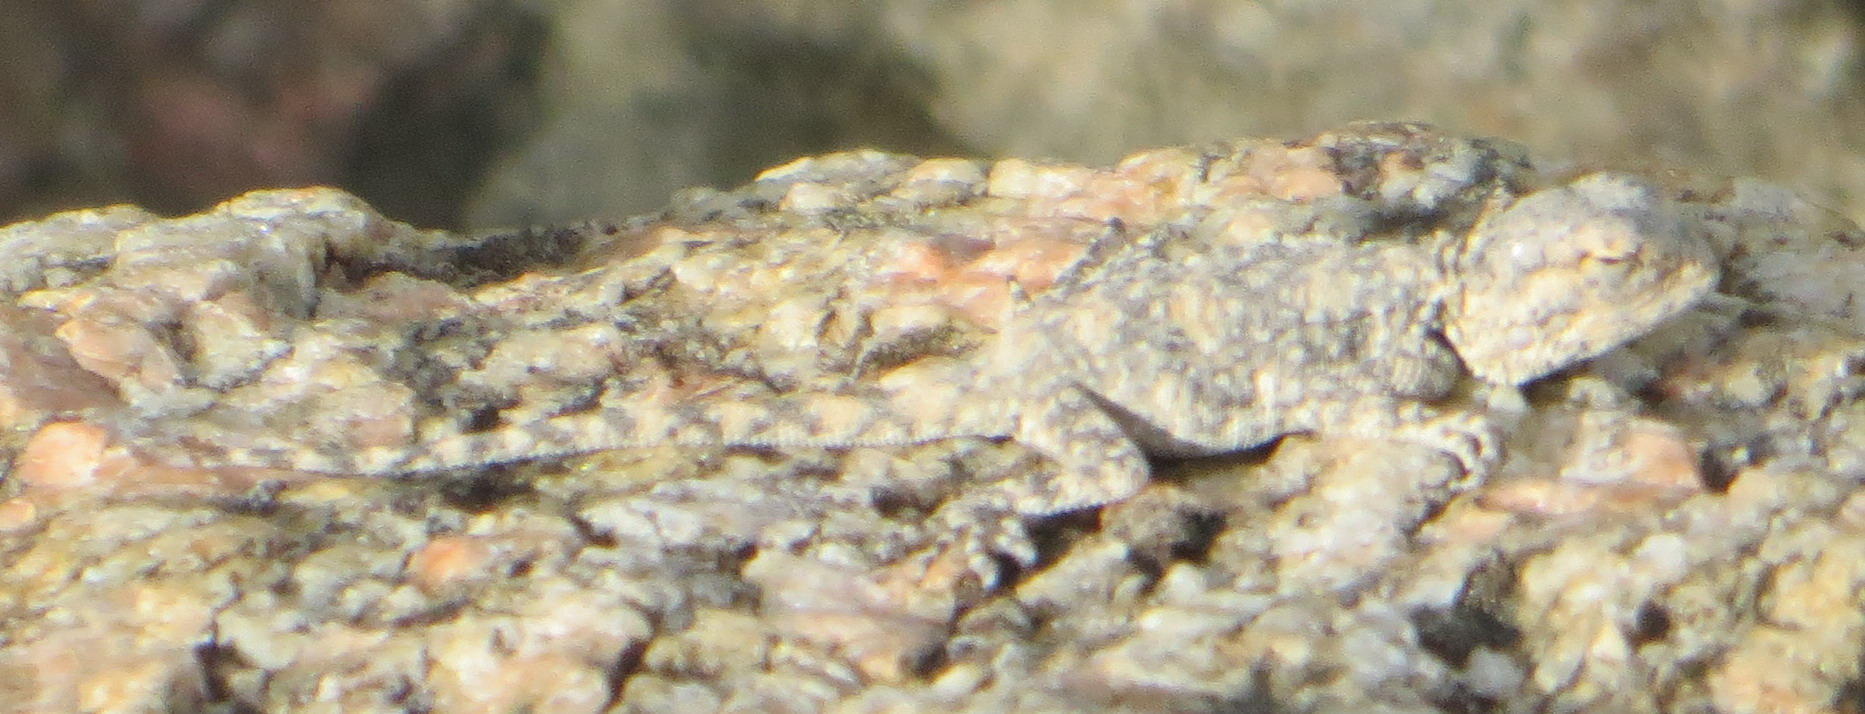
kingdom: Animalia
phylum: Chordata
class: Squamata
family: Agamidae
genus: Agama
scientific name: Agama atra
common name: Southern african rock agama
